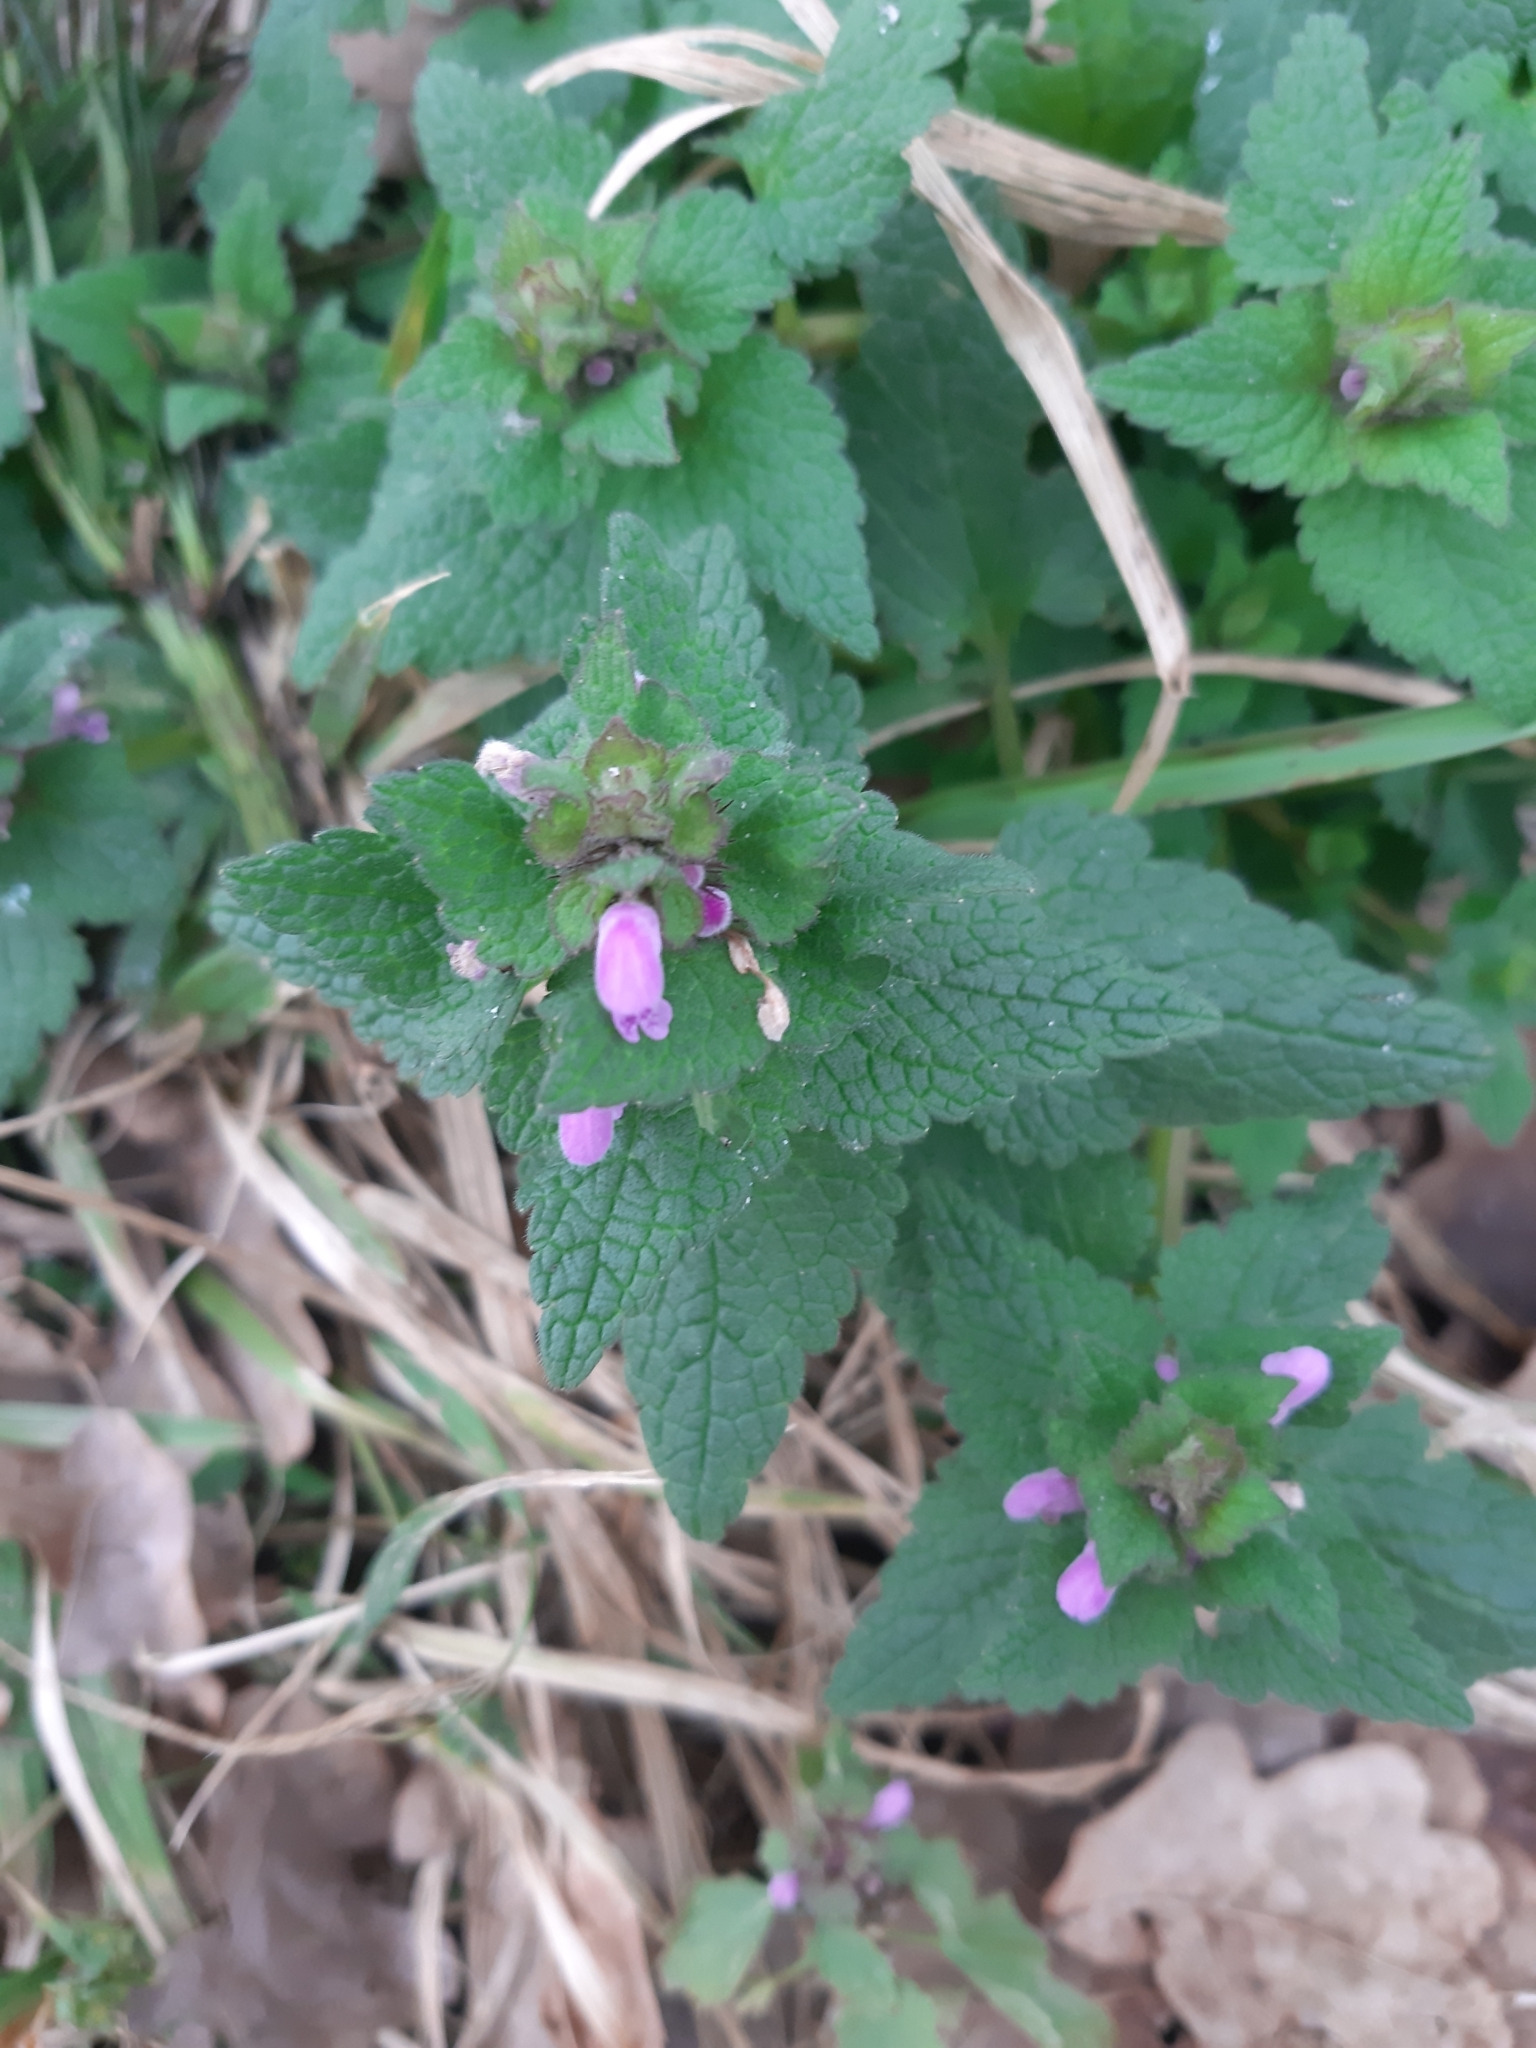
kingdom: Plantae
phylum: Tracheophyta
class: Magnoliopsida
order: Lamiales
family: Lamiaceae
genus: Lamium
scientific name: Lamium purpureum
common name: Red dead-nettle
